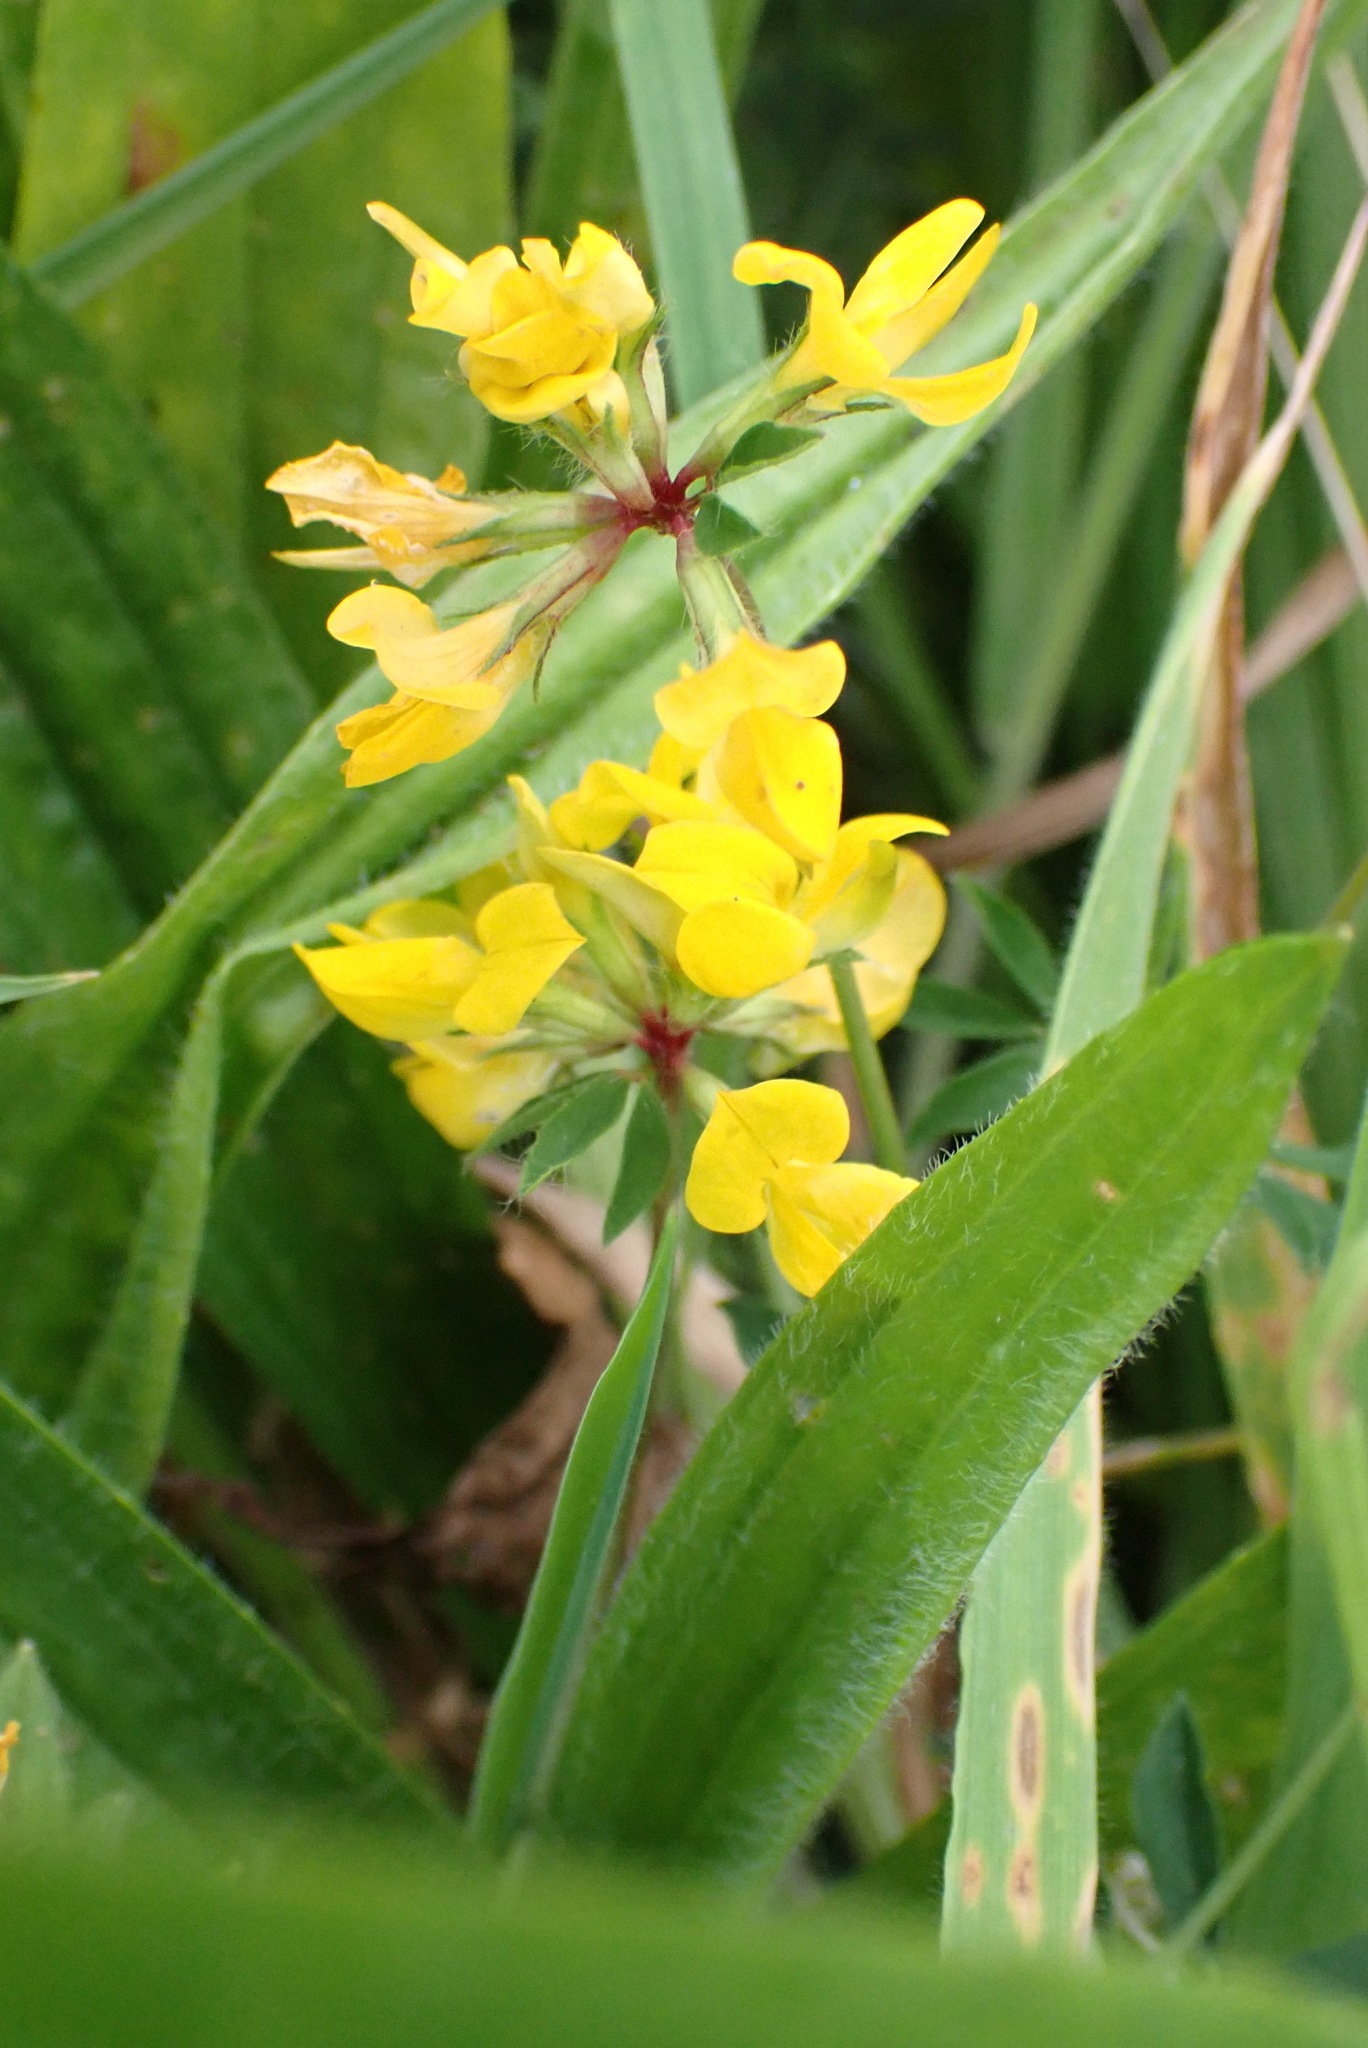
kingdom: Plantae
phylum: Tracheophyta
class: Magnoliopsida
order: Fabales
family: Fabaceae
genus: Lotus
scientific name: Lotus corniculatus
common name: Common bird's-foot-trefoil
